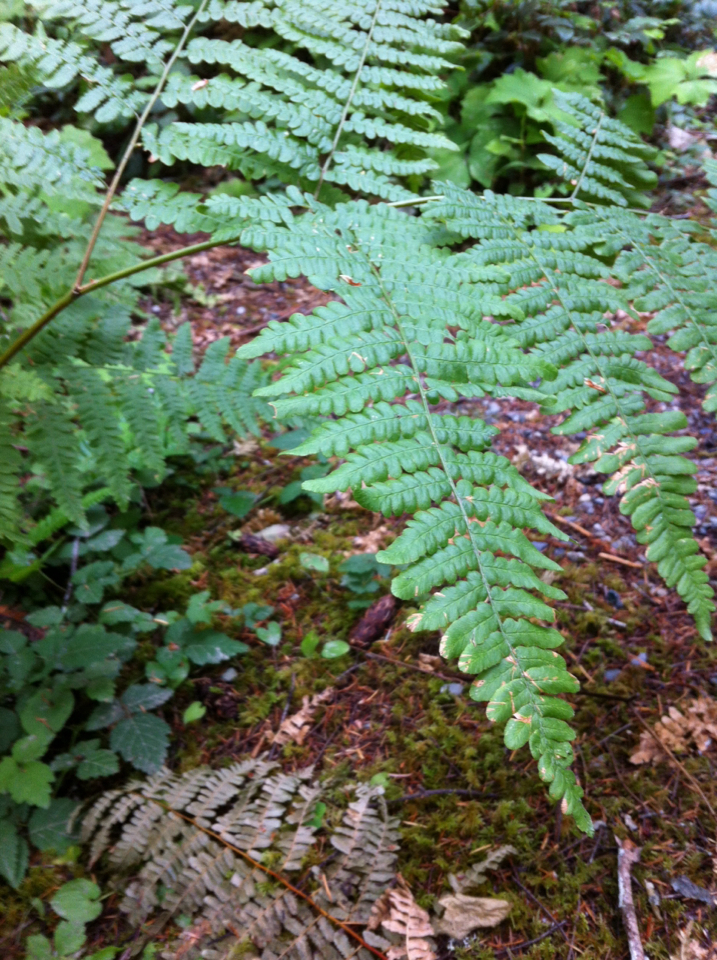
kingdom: Plantae
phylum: Tracheophyta
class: Polypodiopsida
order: Polypodiales
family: Dennstaedtiaceae
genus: Pteridium
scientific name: Pteridium aquilinum
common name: Bracken
